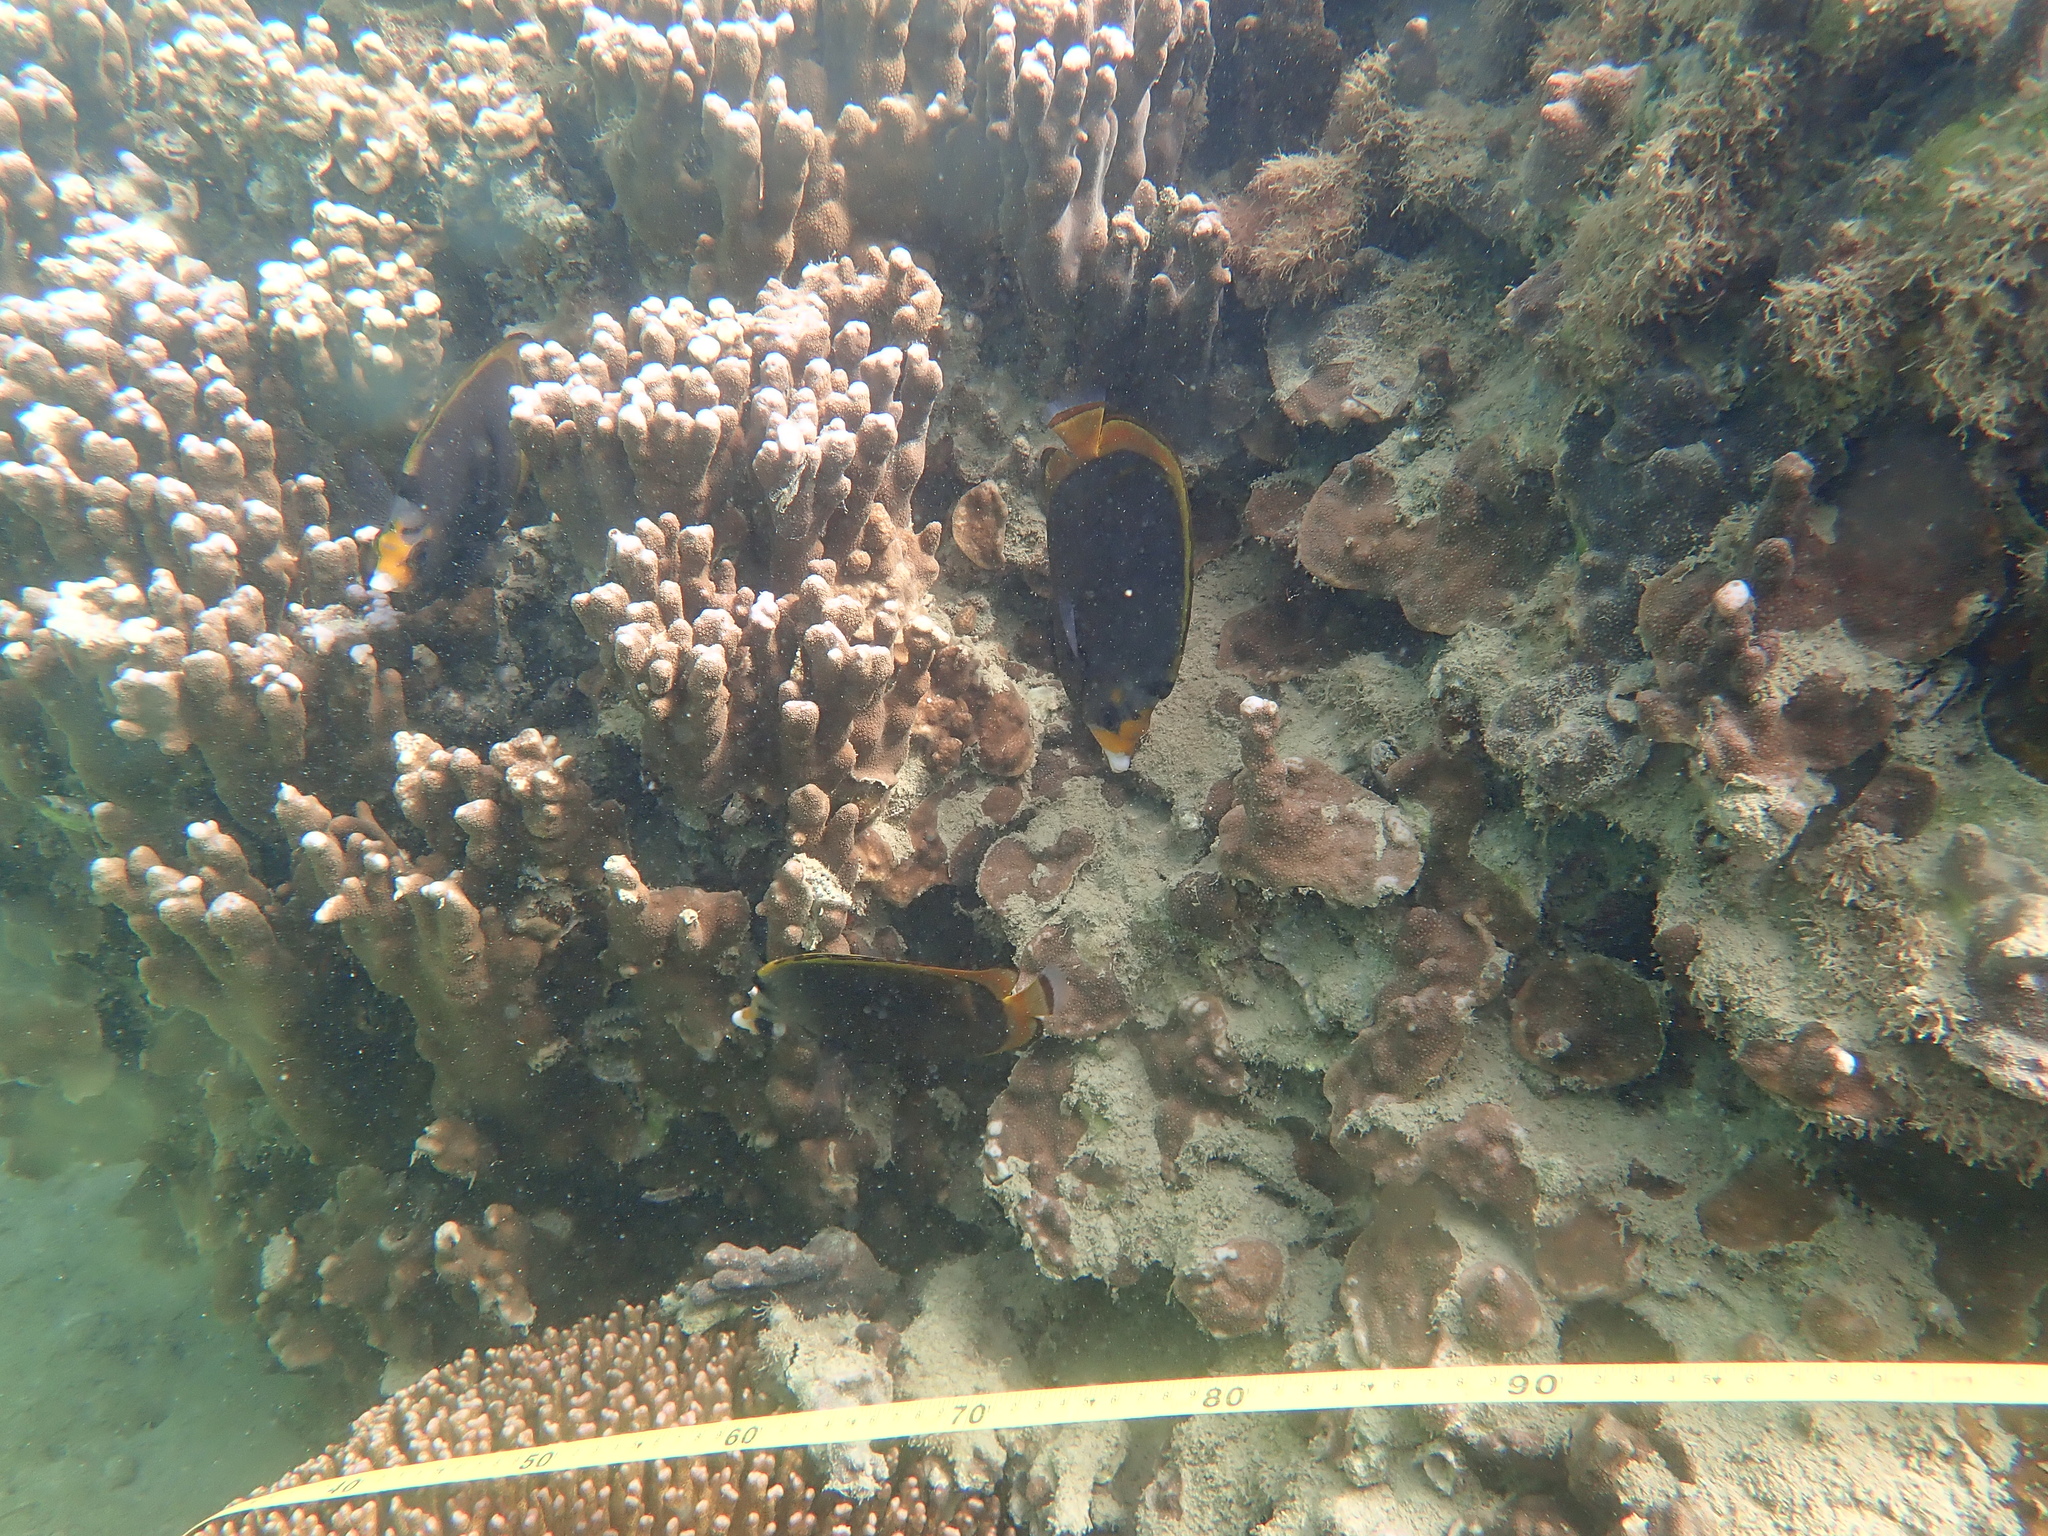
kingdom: Animalia
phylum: Chordata
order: Perciformes
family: Chaetodontidae
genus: Chaetodon
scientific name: Chaetodon flavirostris
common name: Black butterflyfish
